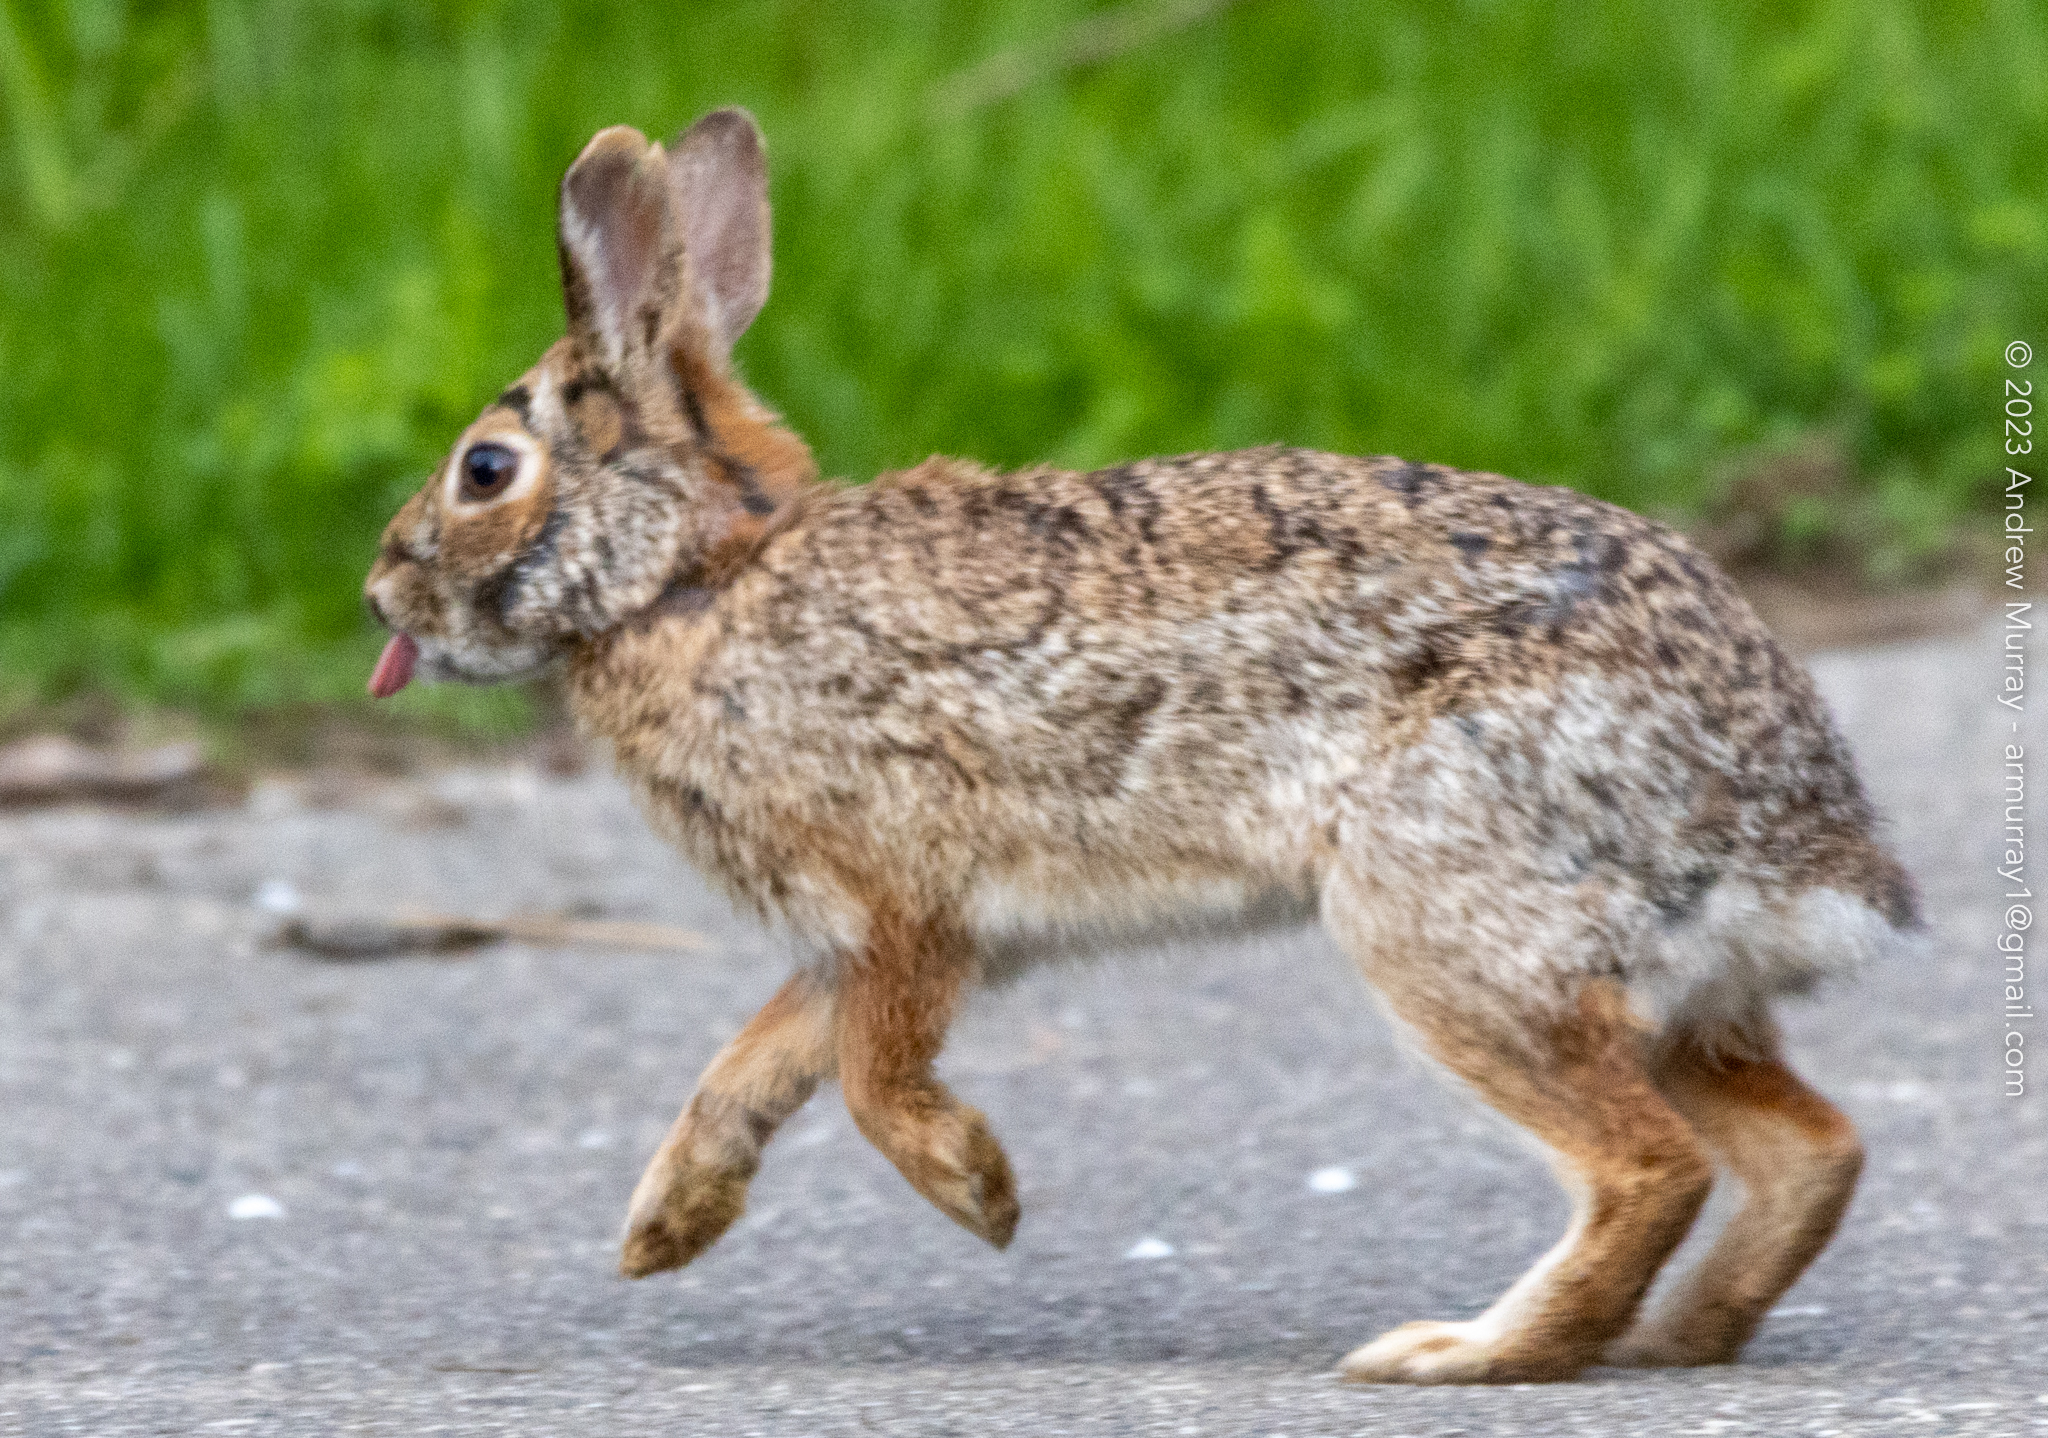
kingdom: Animalia
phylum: Chordata
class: Mammalia
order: Lagomorpha
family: Leporidae
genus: Sylvilagus
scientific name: Sylvilagus floridanus
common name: Eastern cottontail
